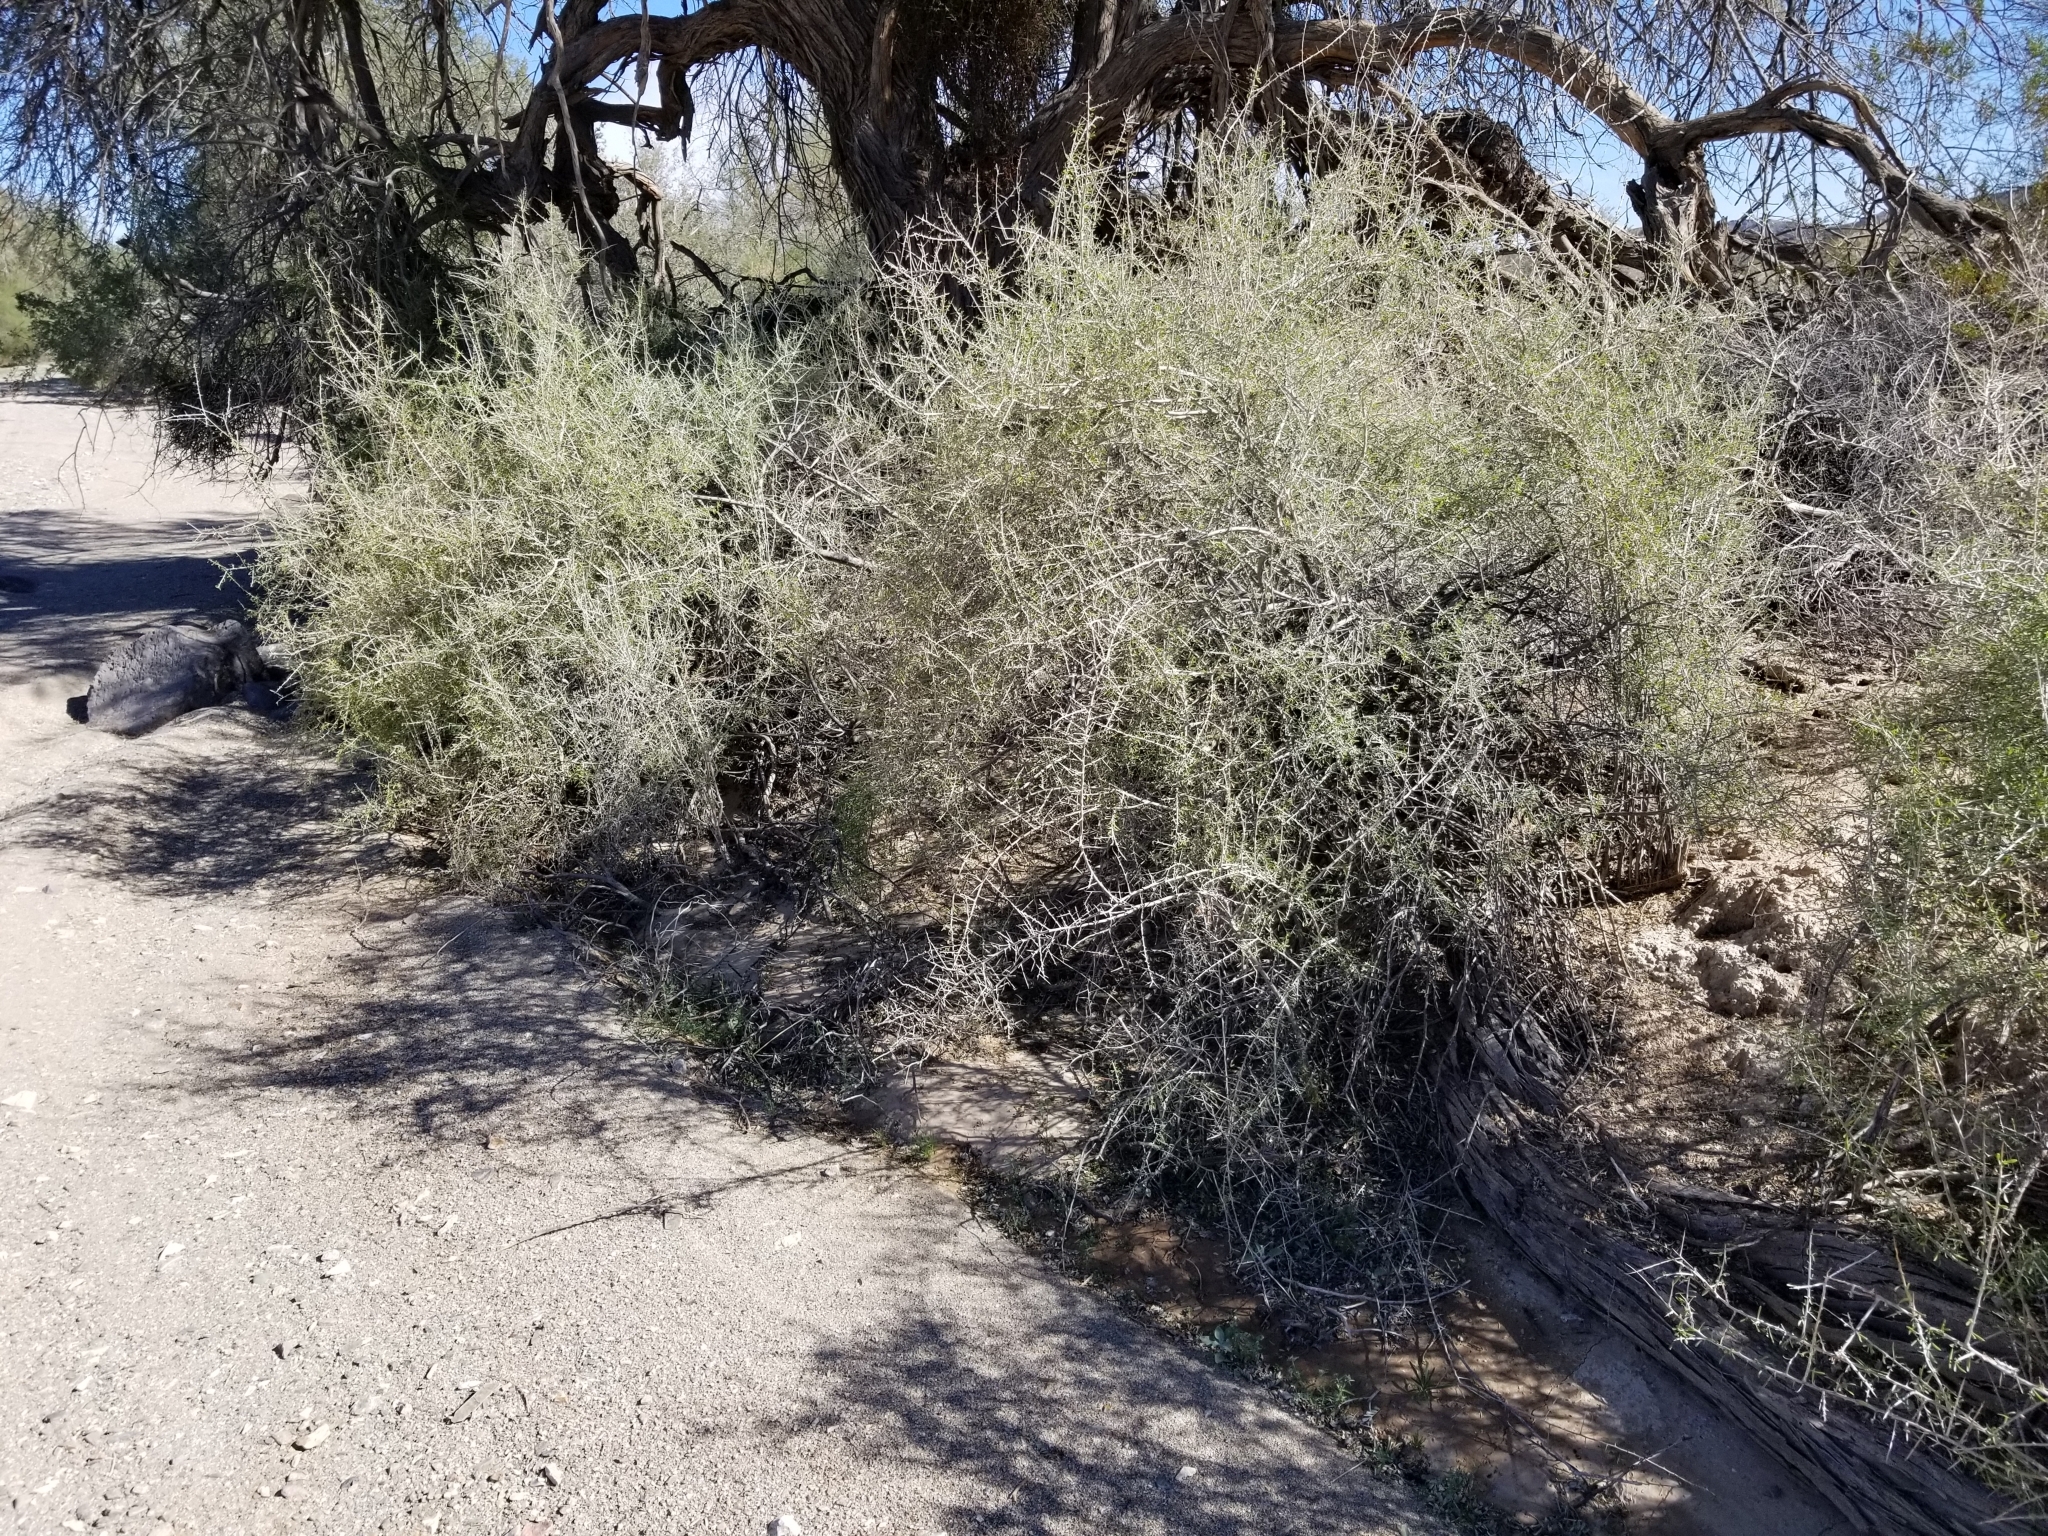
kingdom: Plantae
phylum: Tracheophyta
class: Magnoliopsida
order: Solanales
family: Solanaceae
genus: Lycium
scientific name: Lycium andersonii
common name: Water-jacket
